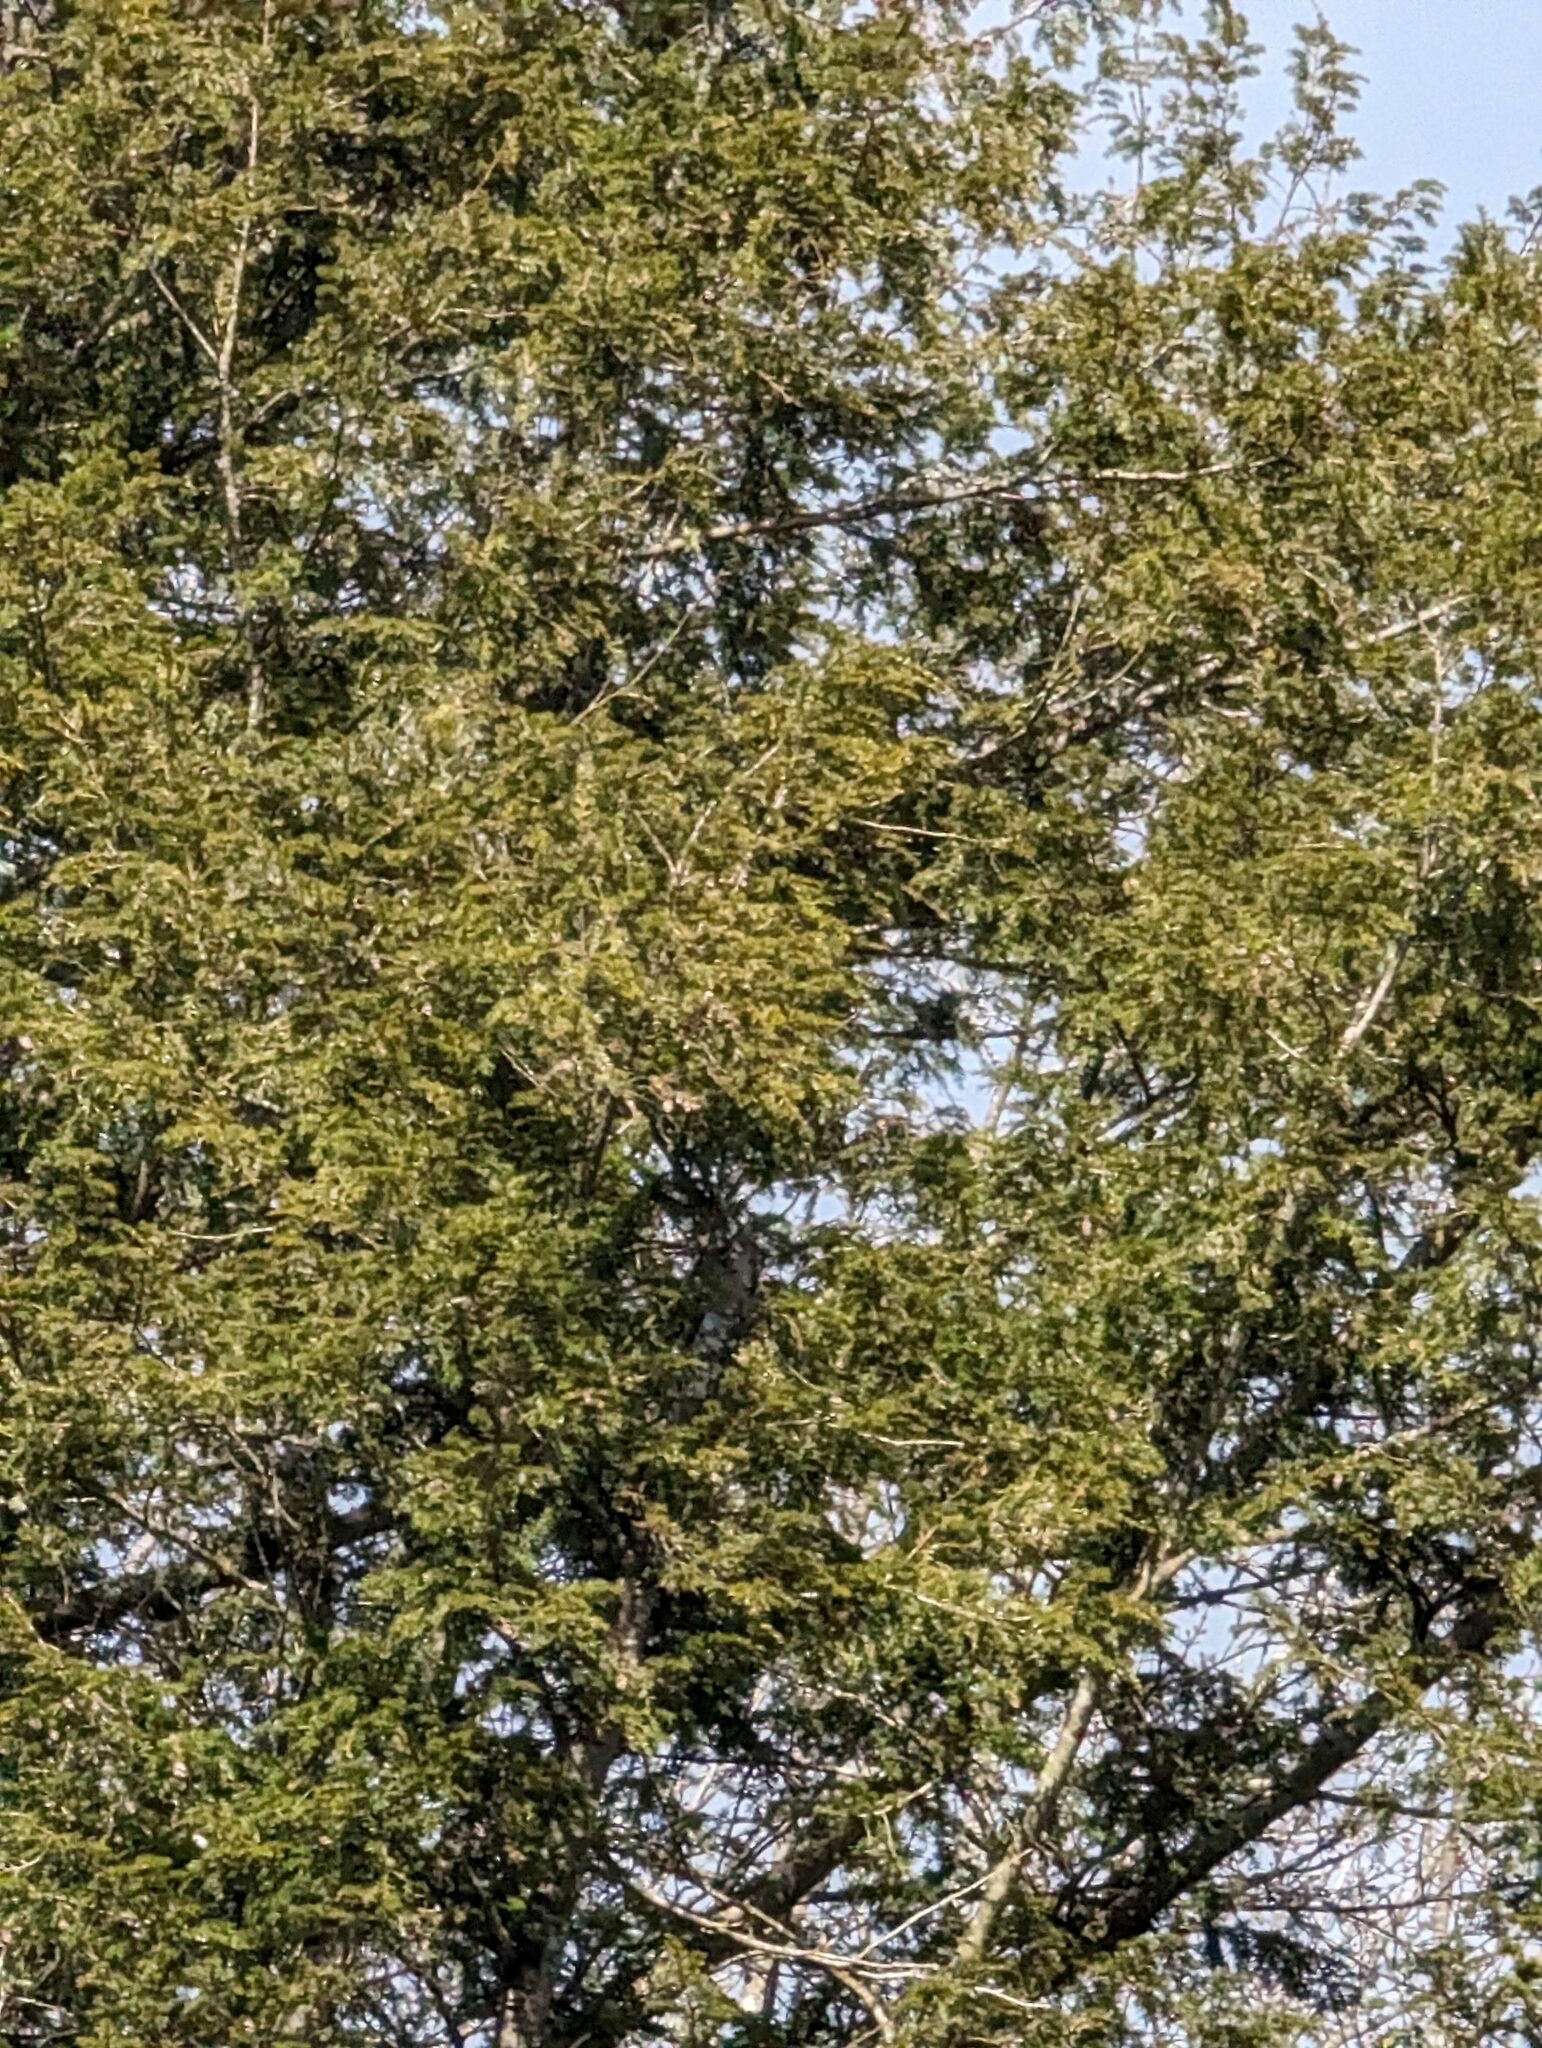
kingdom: Plantae
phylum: Tracheophyta
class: Pinopsida
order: Pinales
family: Pinaceae
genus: Tsuga
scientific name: Tsuga canadensis
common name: Eastern hemlock
